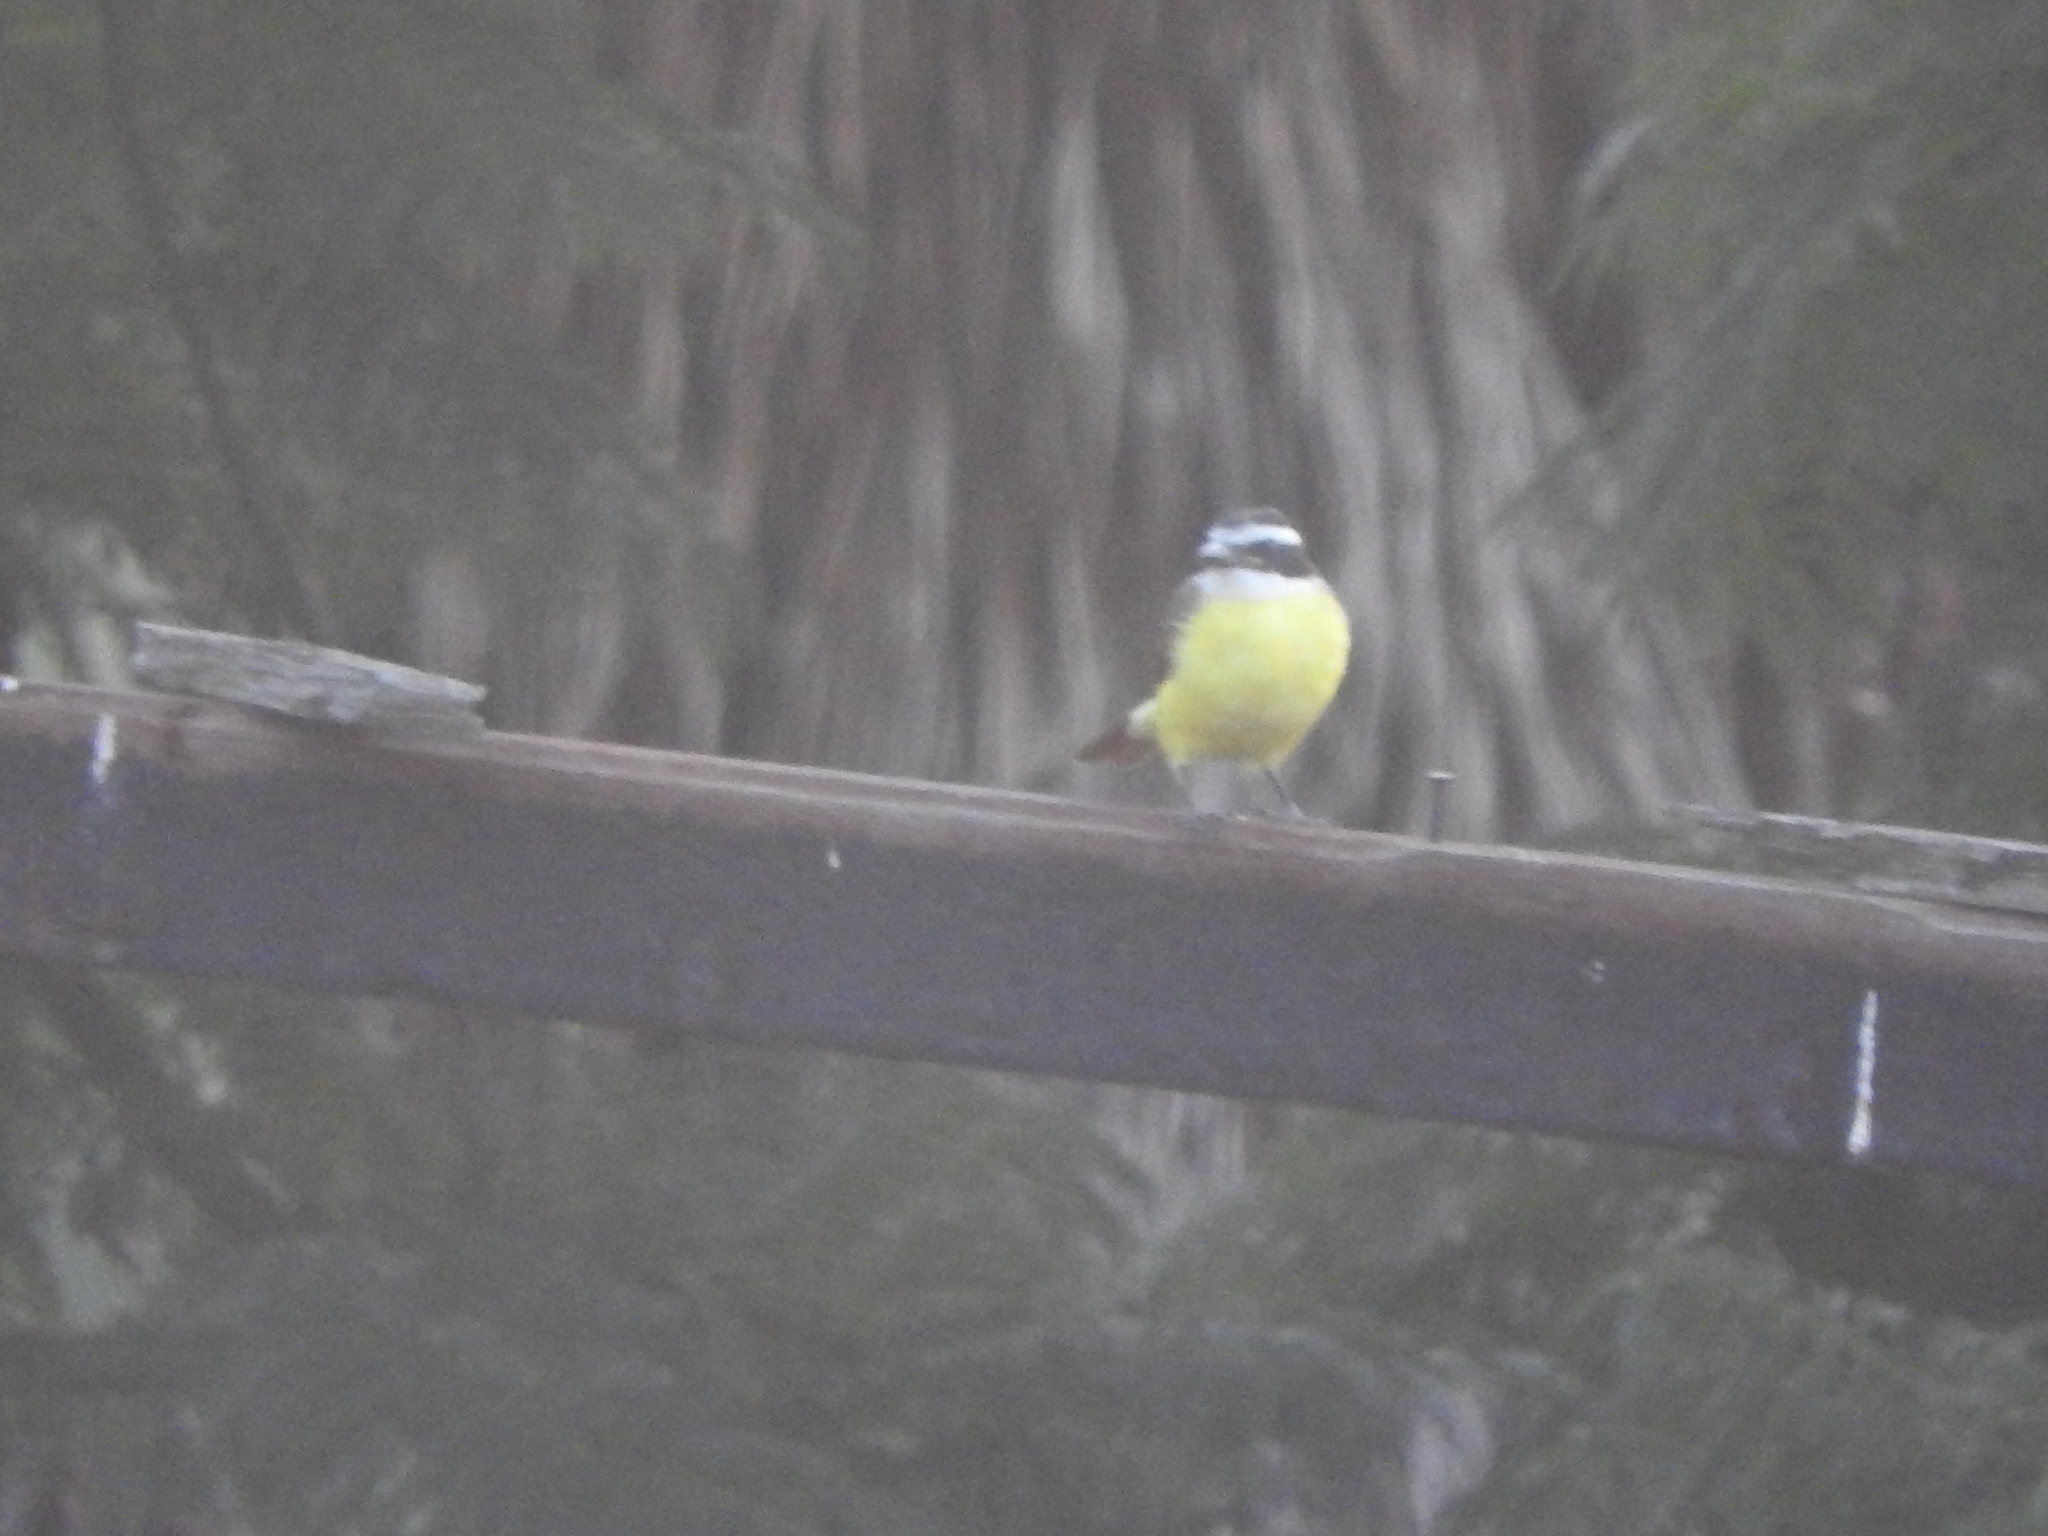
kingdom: Animalia
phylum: Chordata
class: Aves
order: Passeriformes
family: Tyrannidae
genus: Pitangus
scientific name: Pitangus sulphuratus
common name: Great kiskadee
